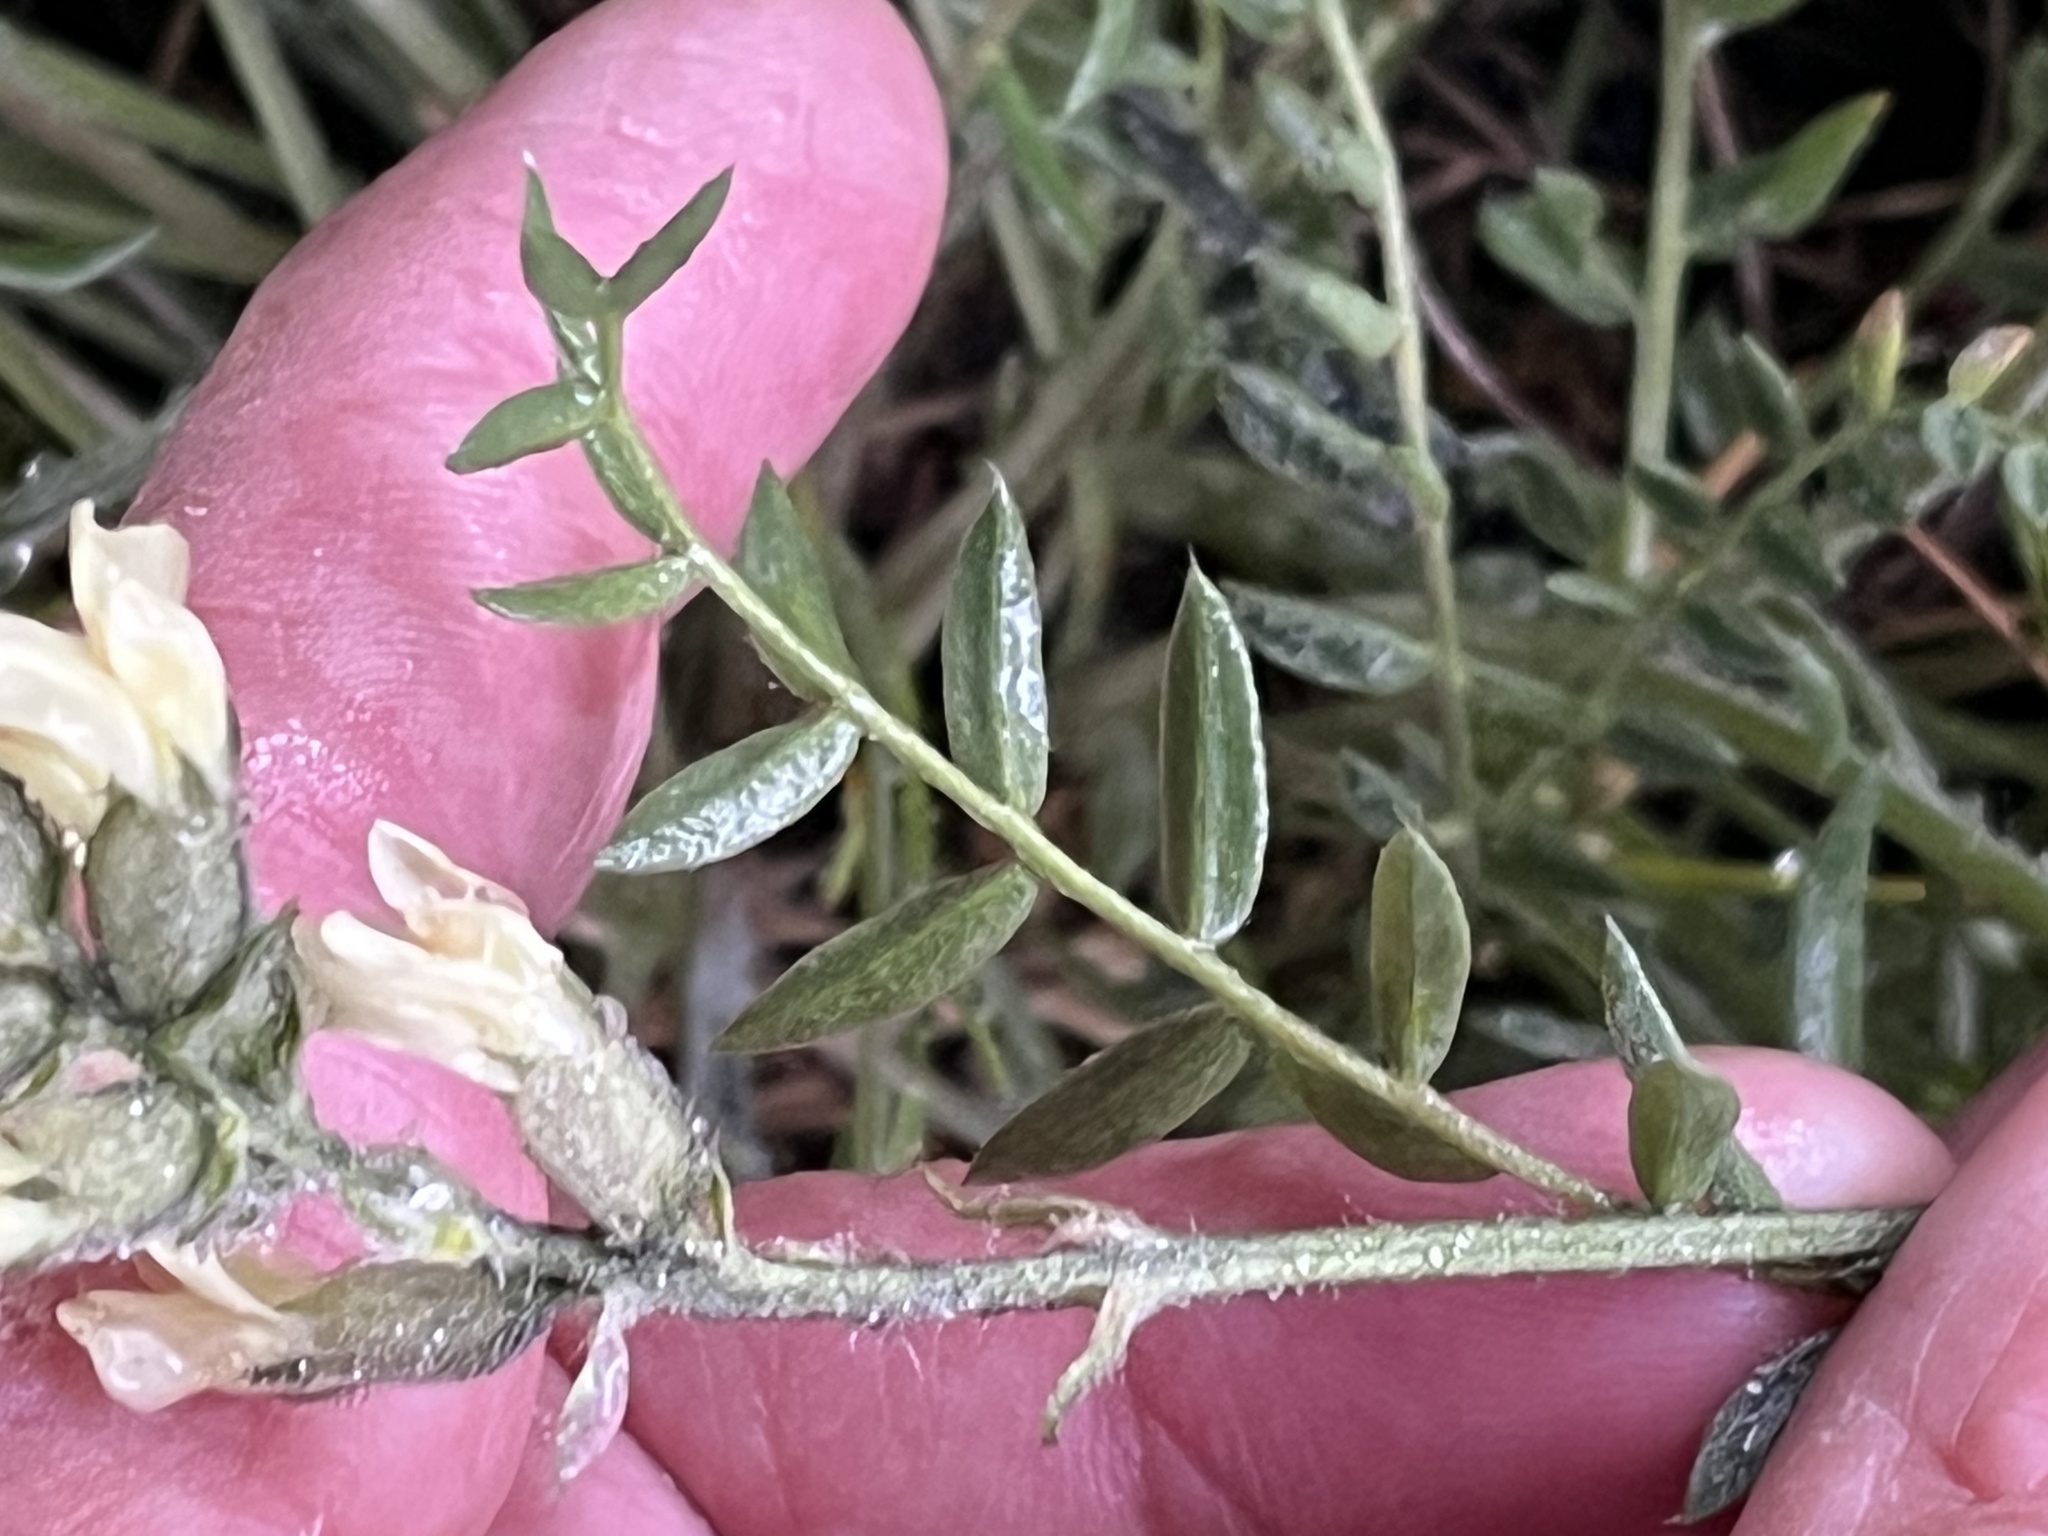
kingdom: Plantae
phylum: Tracheophyta
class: Magnoliopsida
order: Fabales
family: Fabaceae
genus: Oxytropis
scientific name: Oxytropis campestris
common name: Field locoweed
